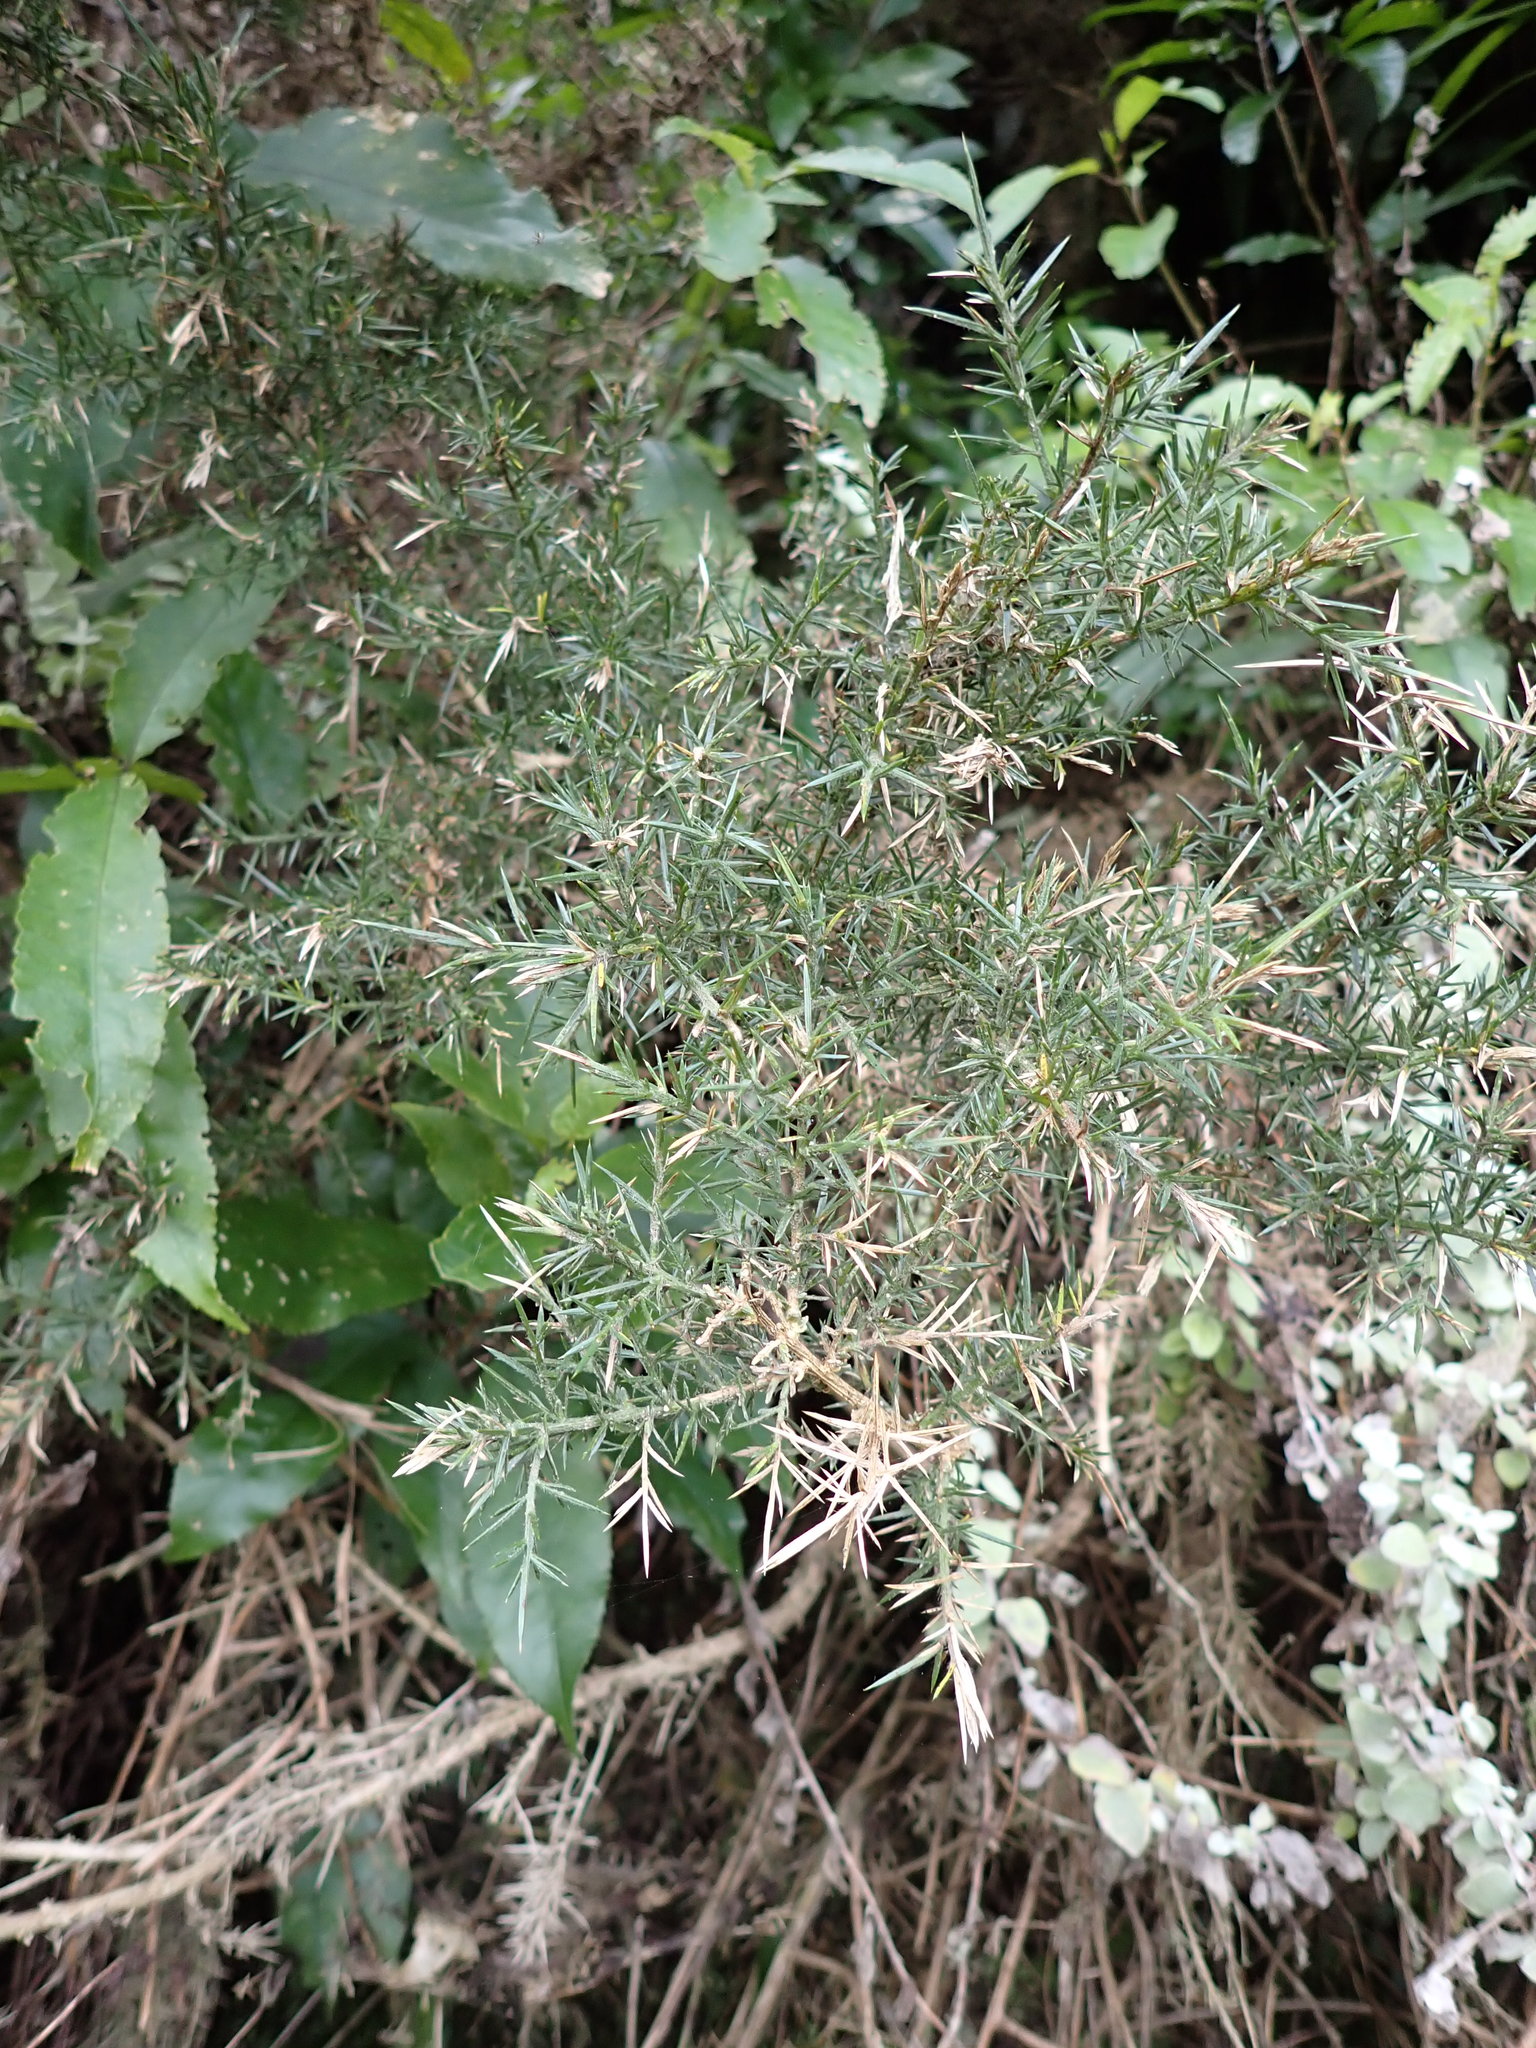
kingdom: Plantae
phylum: Tracheophyta
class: Magnoliopsida
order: Fabales
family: Fabaceae
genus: Ulex
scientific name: Ulex europaeus
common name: Common gorse
